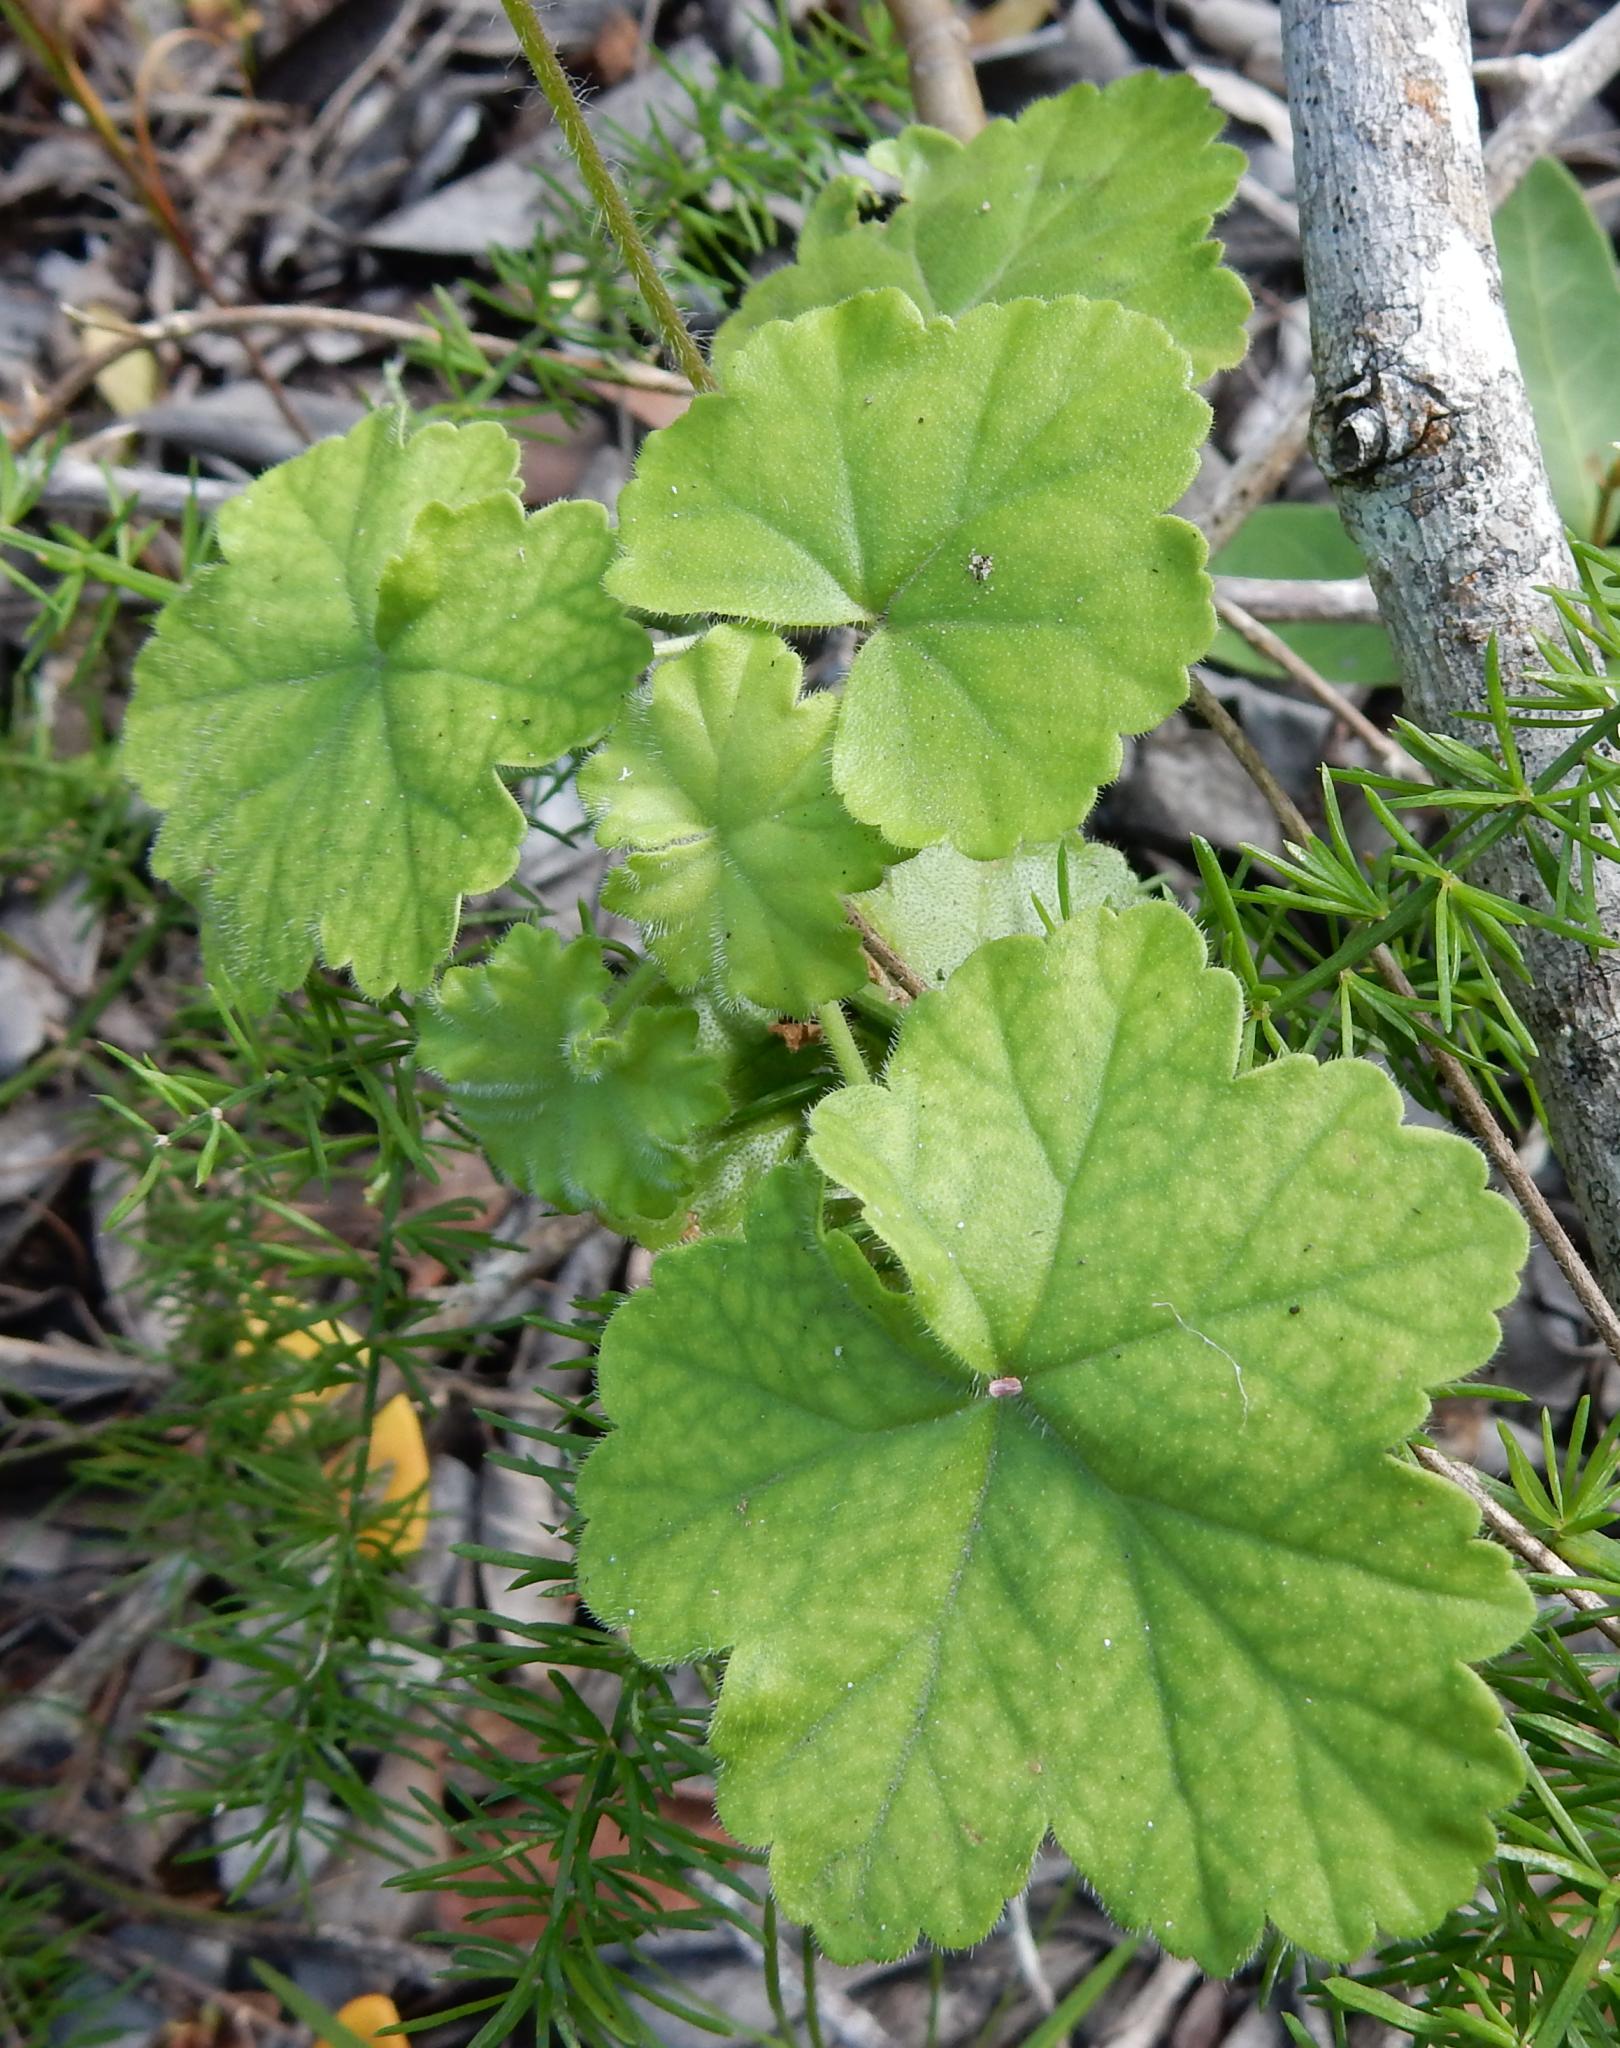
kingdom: Plantae
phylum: Tracheophyta
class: Magnoliopsida
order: Geraniales
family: Geraniaceae
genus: Pelargonium
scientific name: Pelargonium frutetorum
